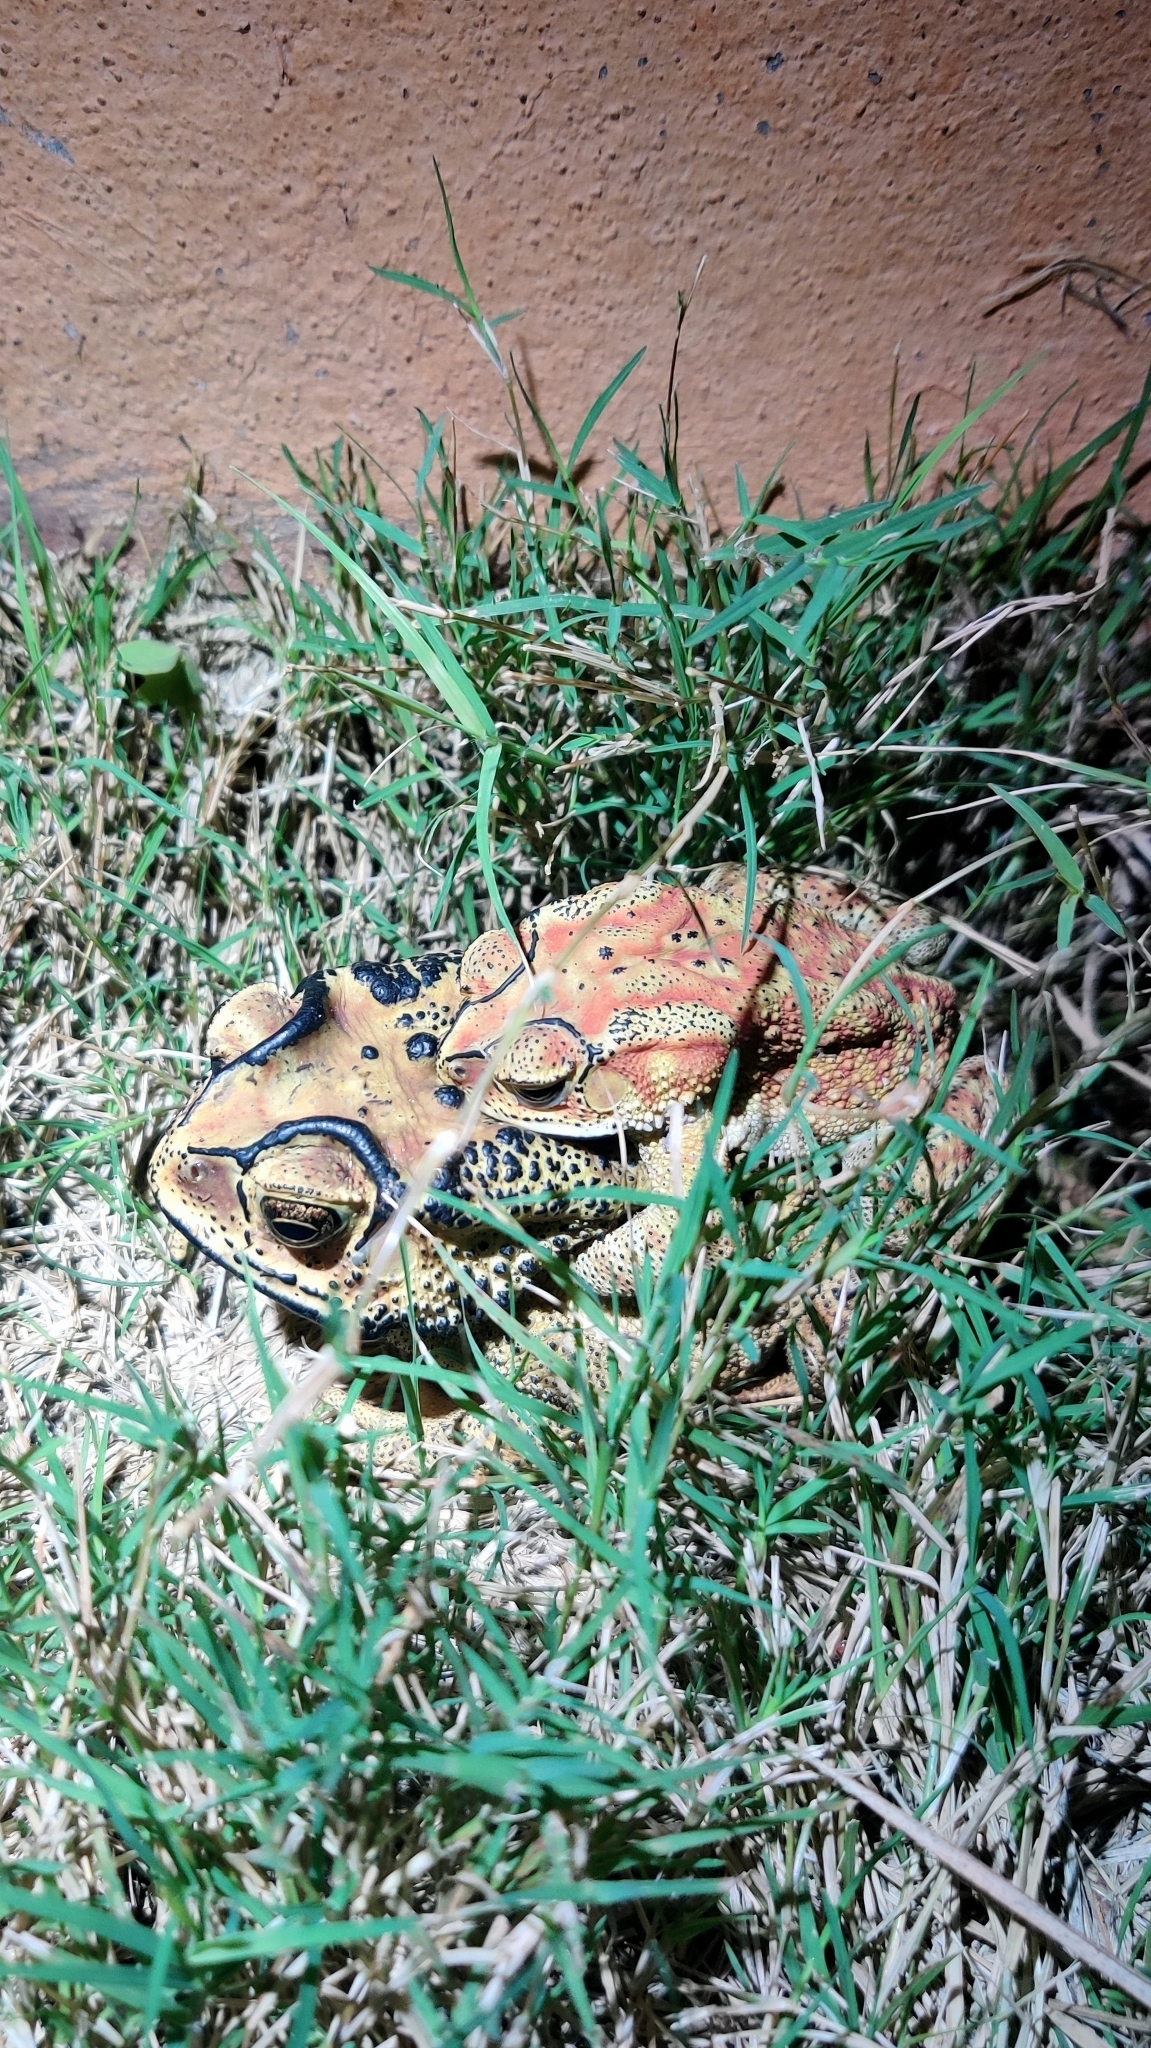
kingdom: Animalia
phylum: Chordata
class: Amphibia
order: Anura
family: Bufonidae
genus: Duttaphrynus
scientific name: Duttaphrynus melanostictus
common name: Common sunda toad
